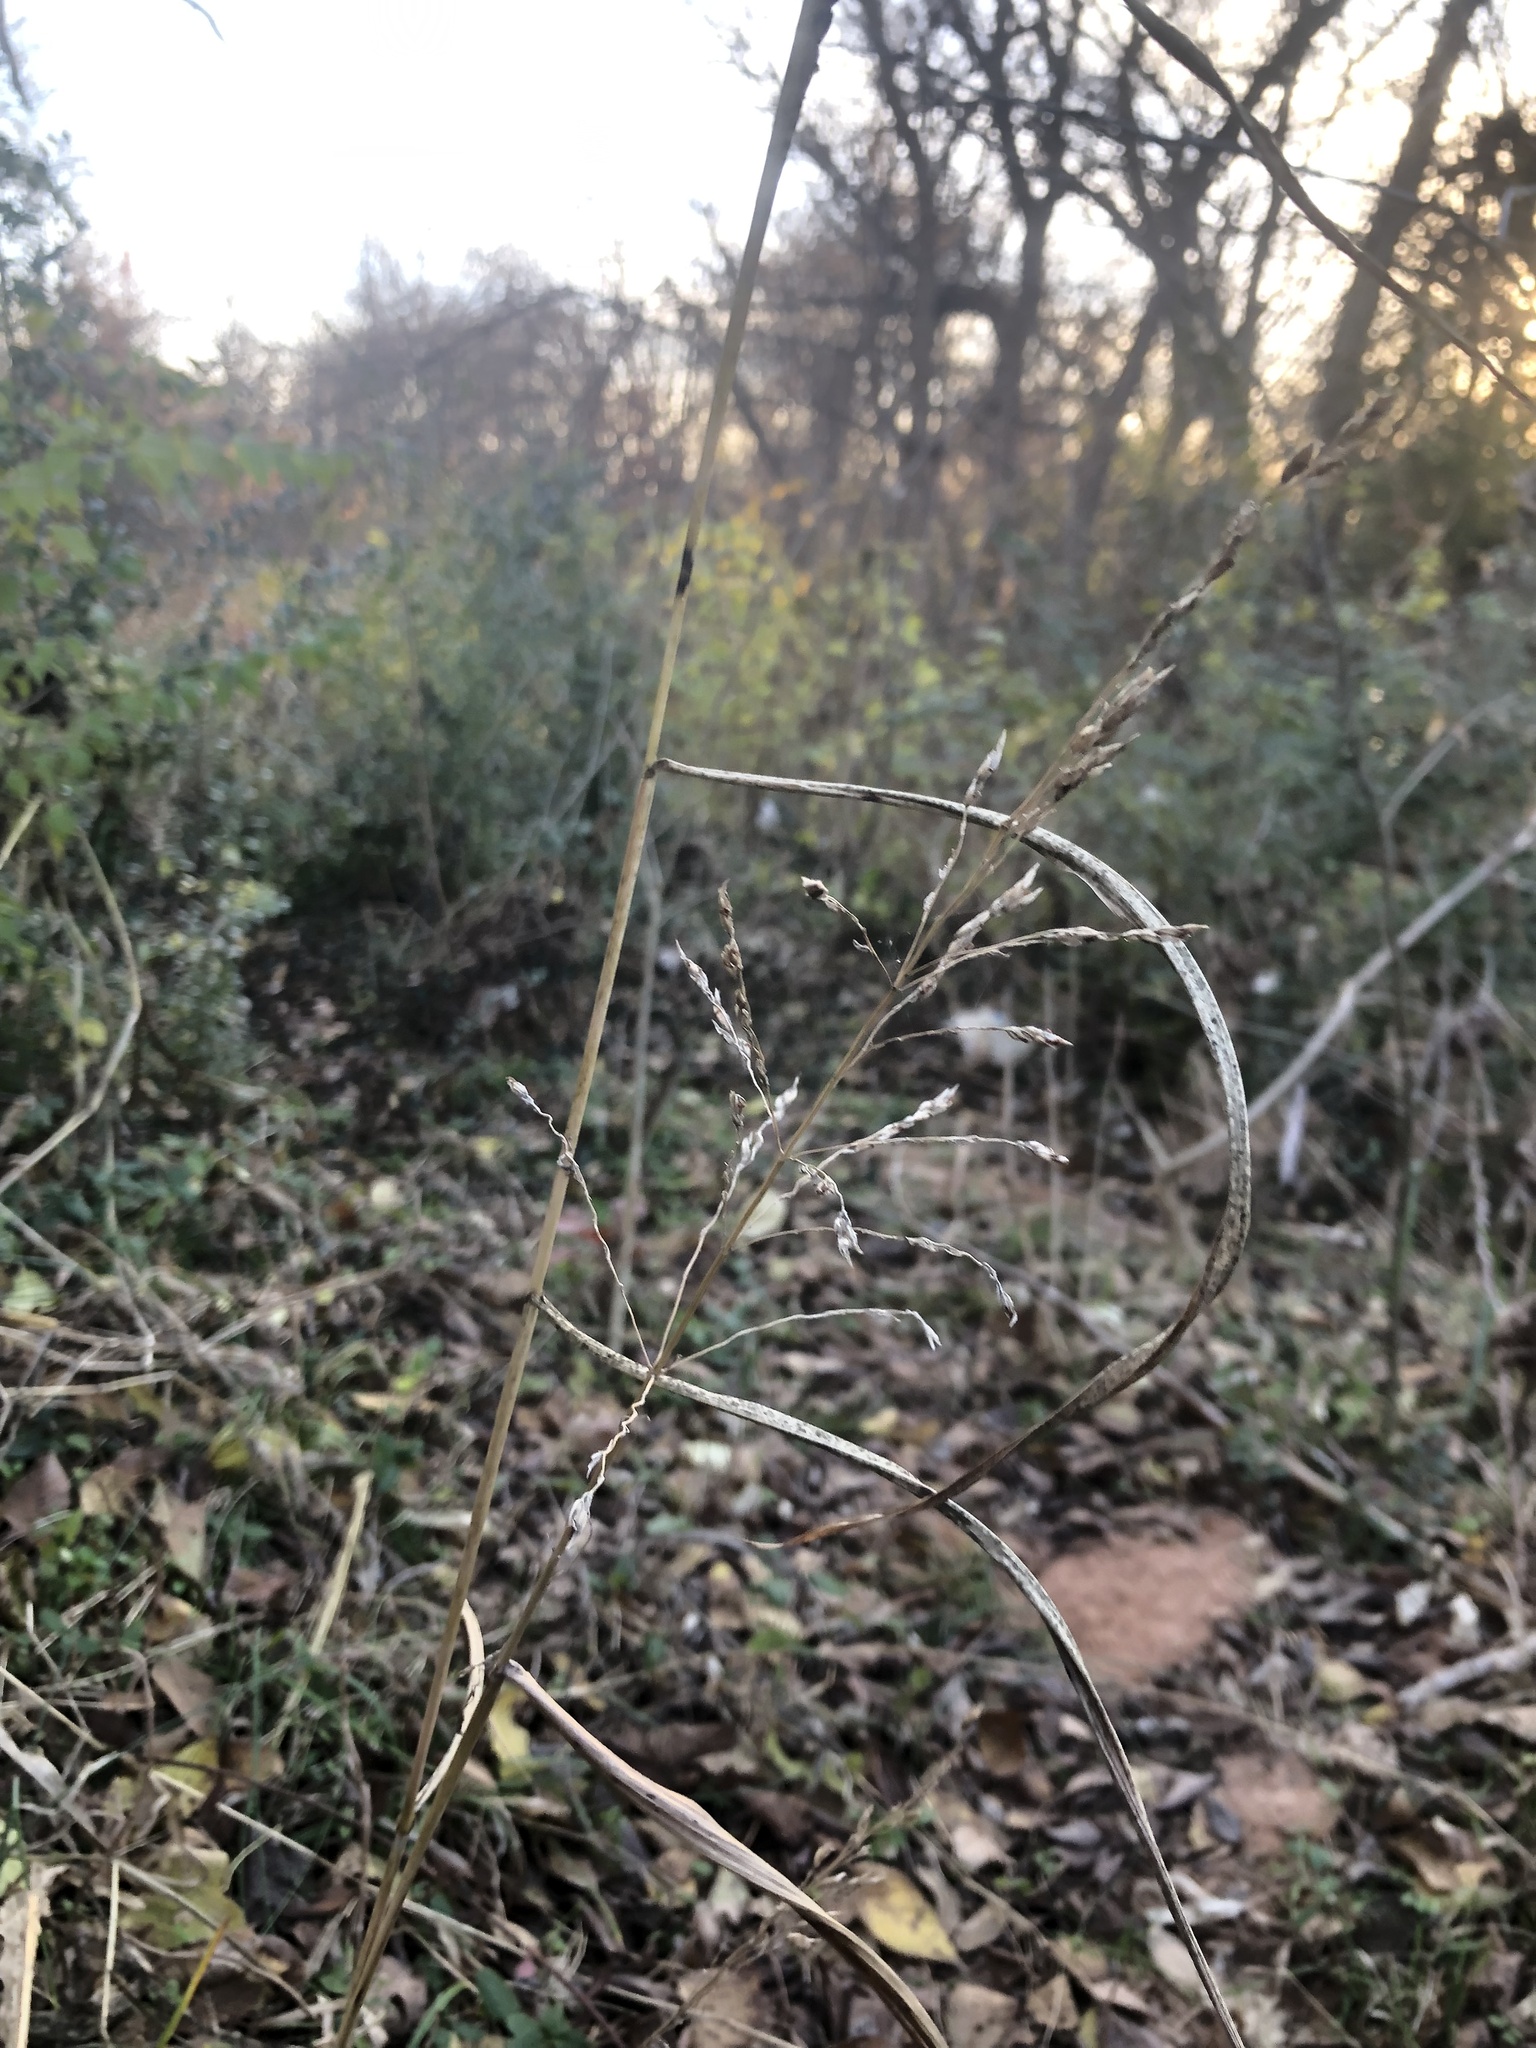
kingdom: Plantae
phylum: Tracheophyta
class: Liliopsida
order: Poales
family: Poaceae
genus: Sorghum
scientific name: Sorghum halepense
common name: Johnson-grass
